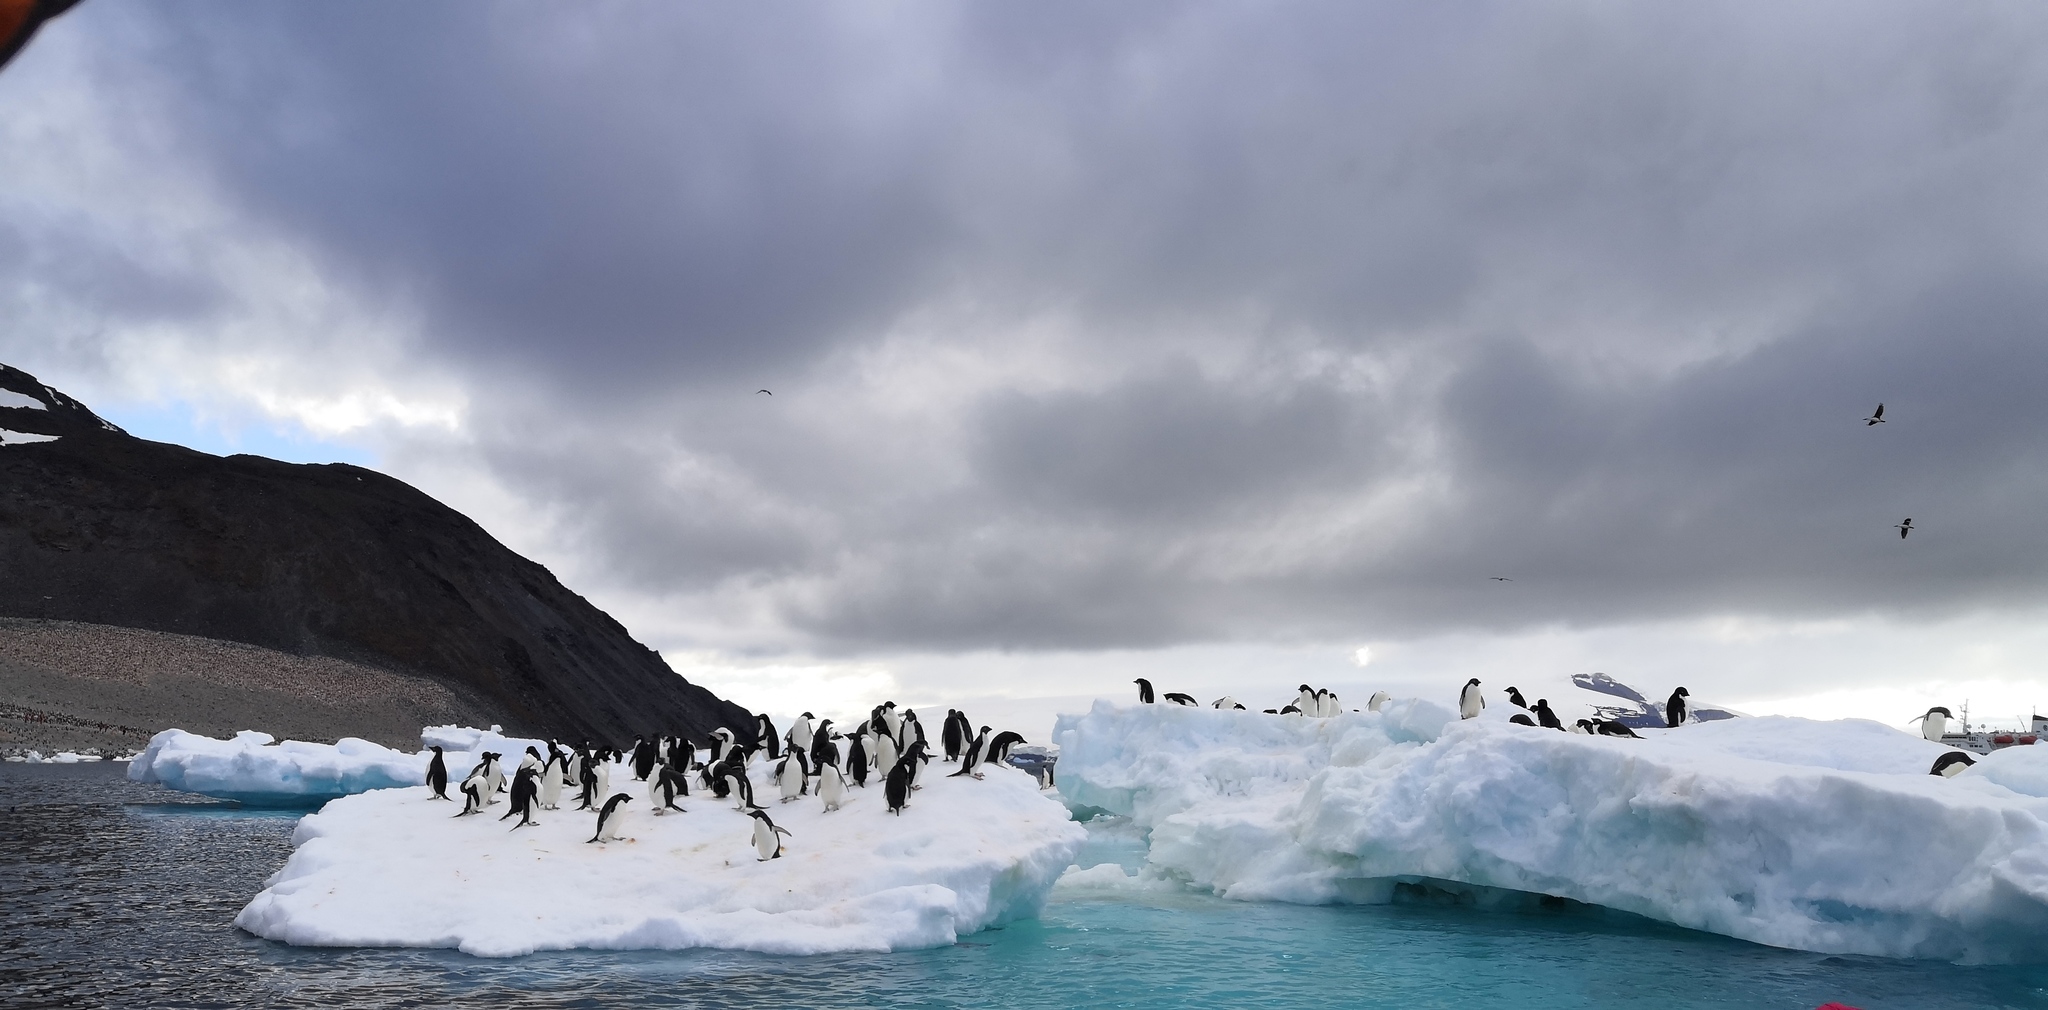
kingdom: Animalia
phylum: Chordata
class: Aves
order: Sphenisciformes
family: Spheniscidae
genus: Pygoscelis
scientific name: Pygoscelis adeliae
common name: Adelie penguin
